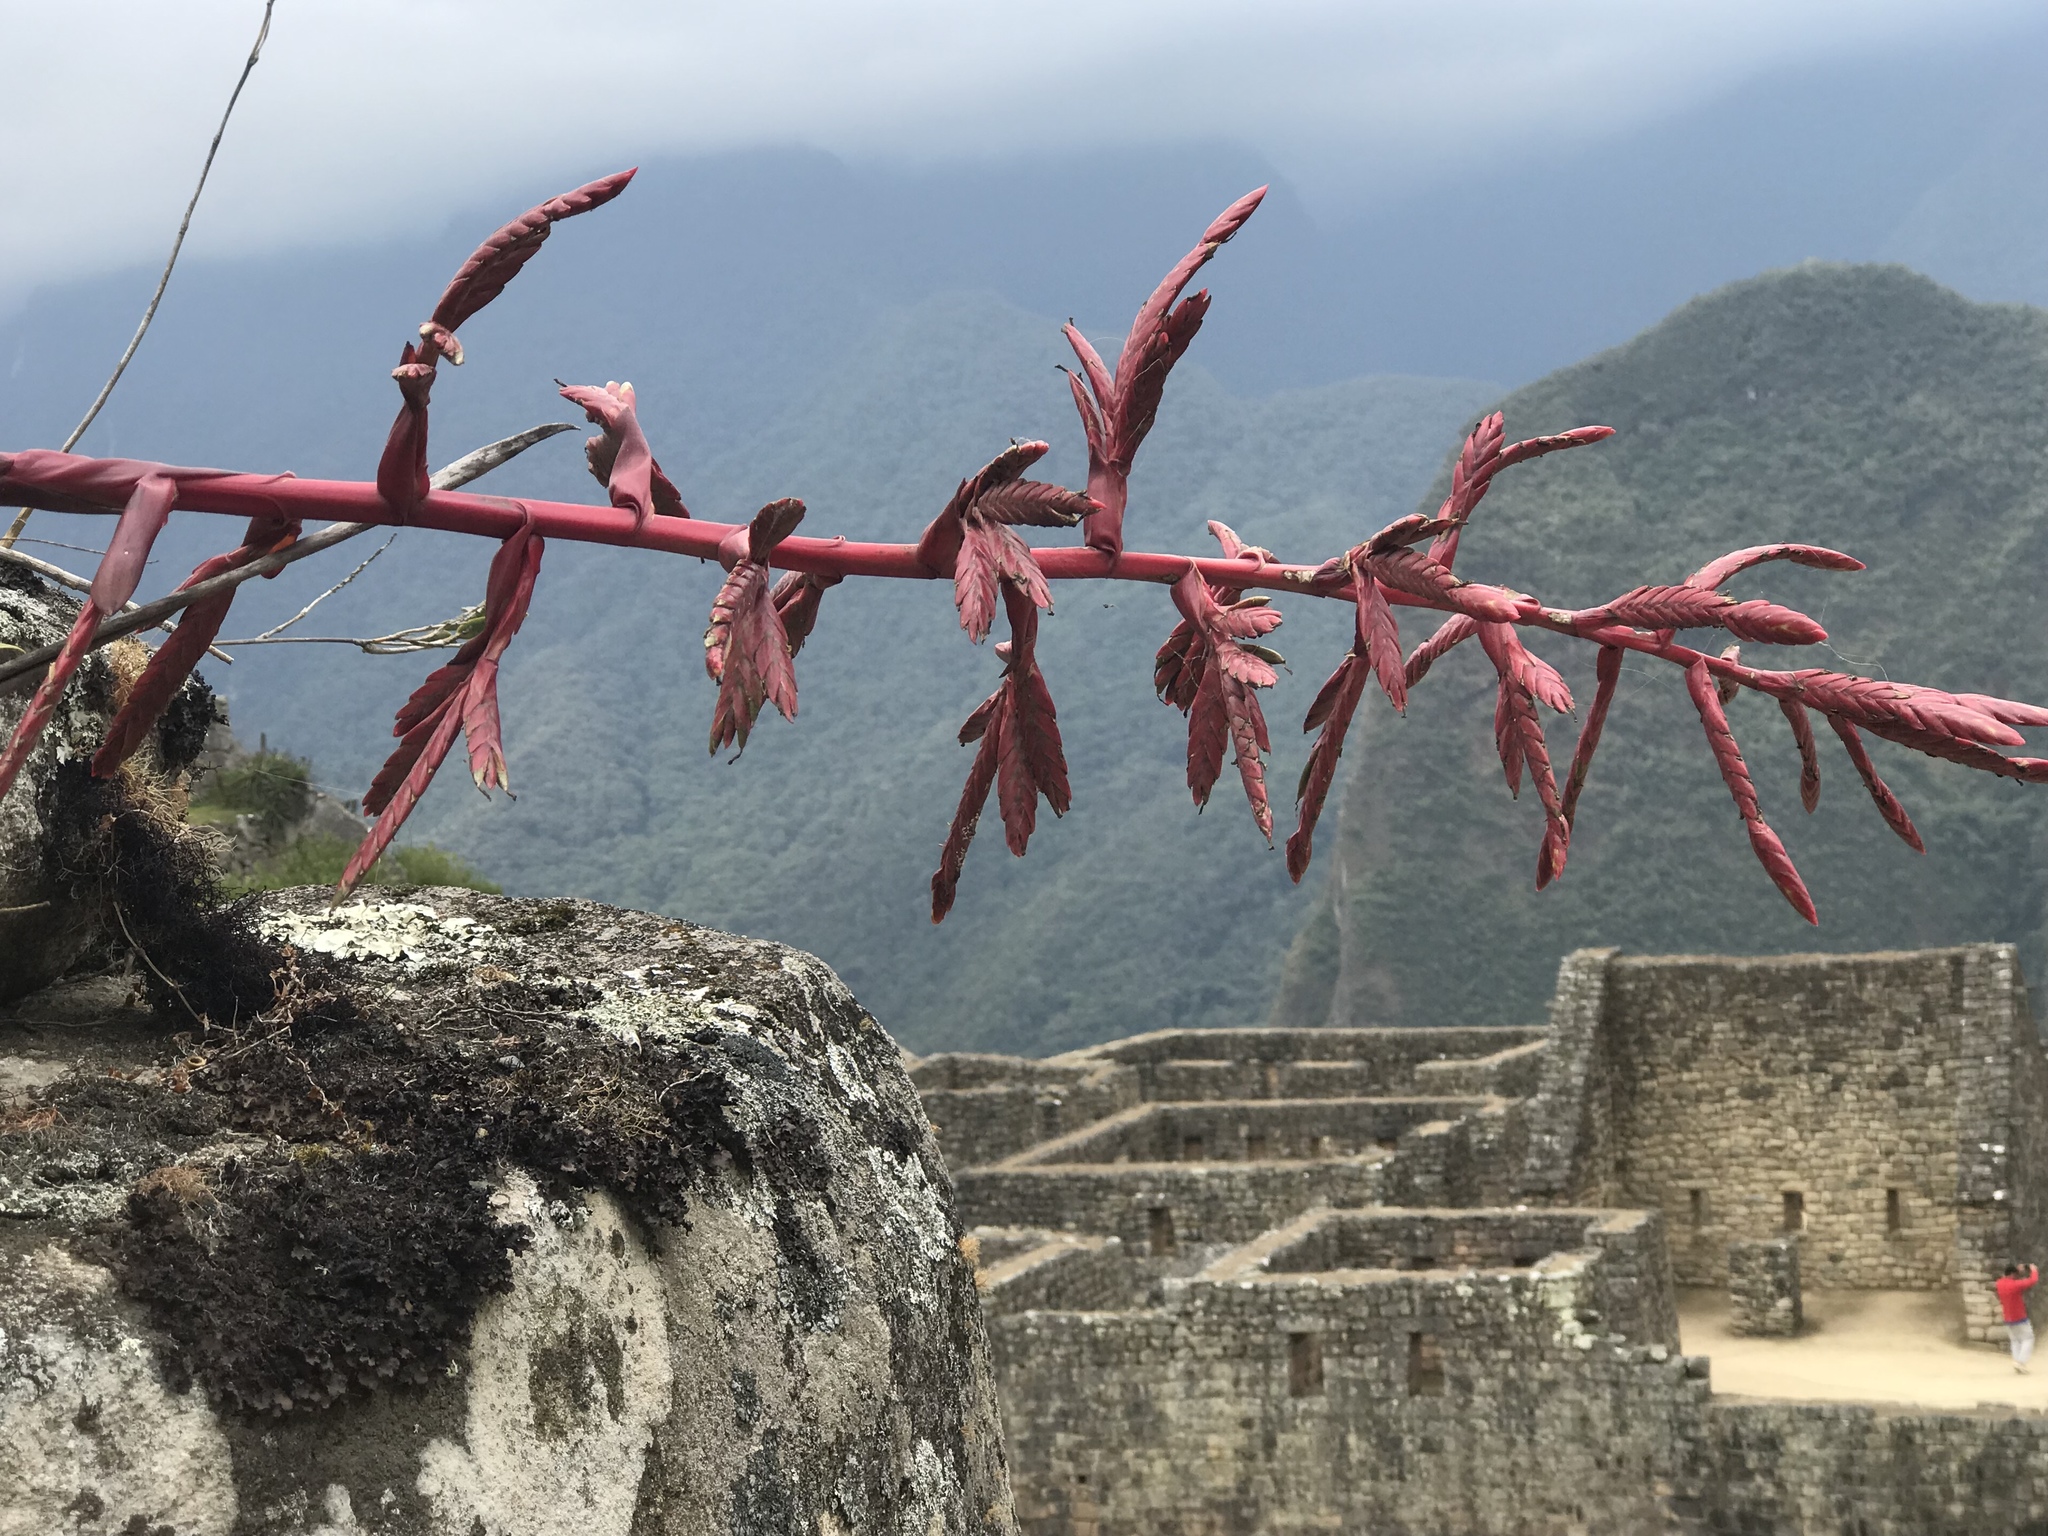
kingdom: Plantae
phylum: Tracheophyta
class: Liliopsida
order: Poales
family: Bromeliaceae
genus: Tillandsia
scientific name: Tillandsia machupicchuensis
